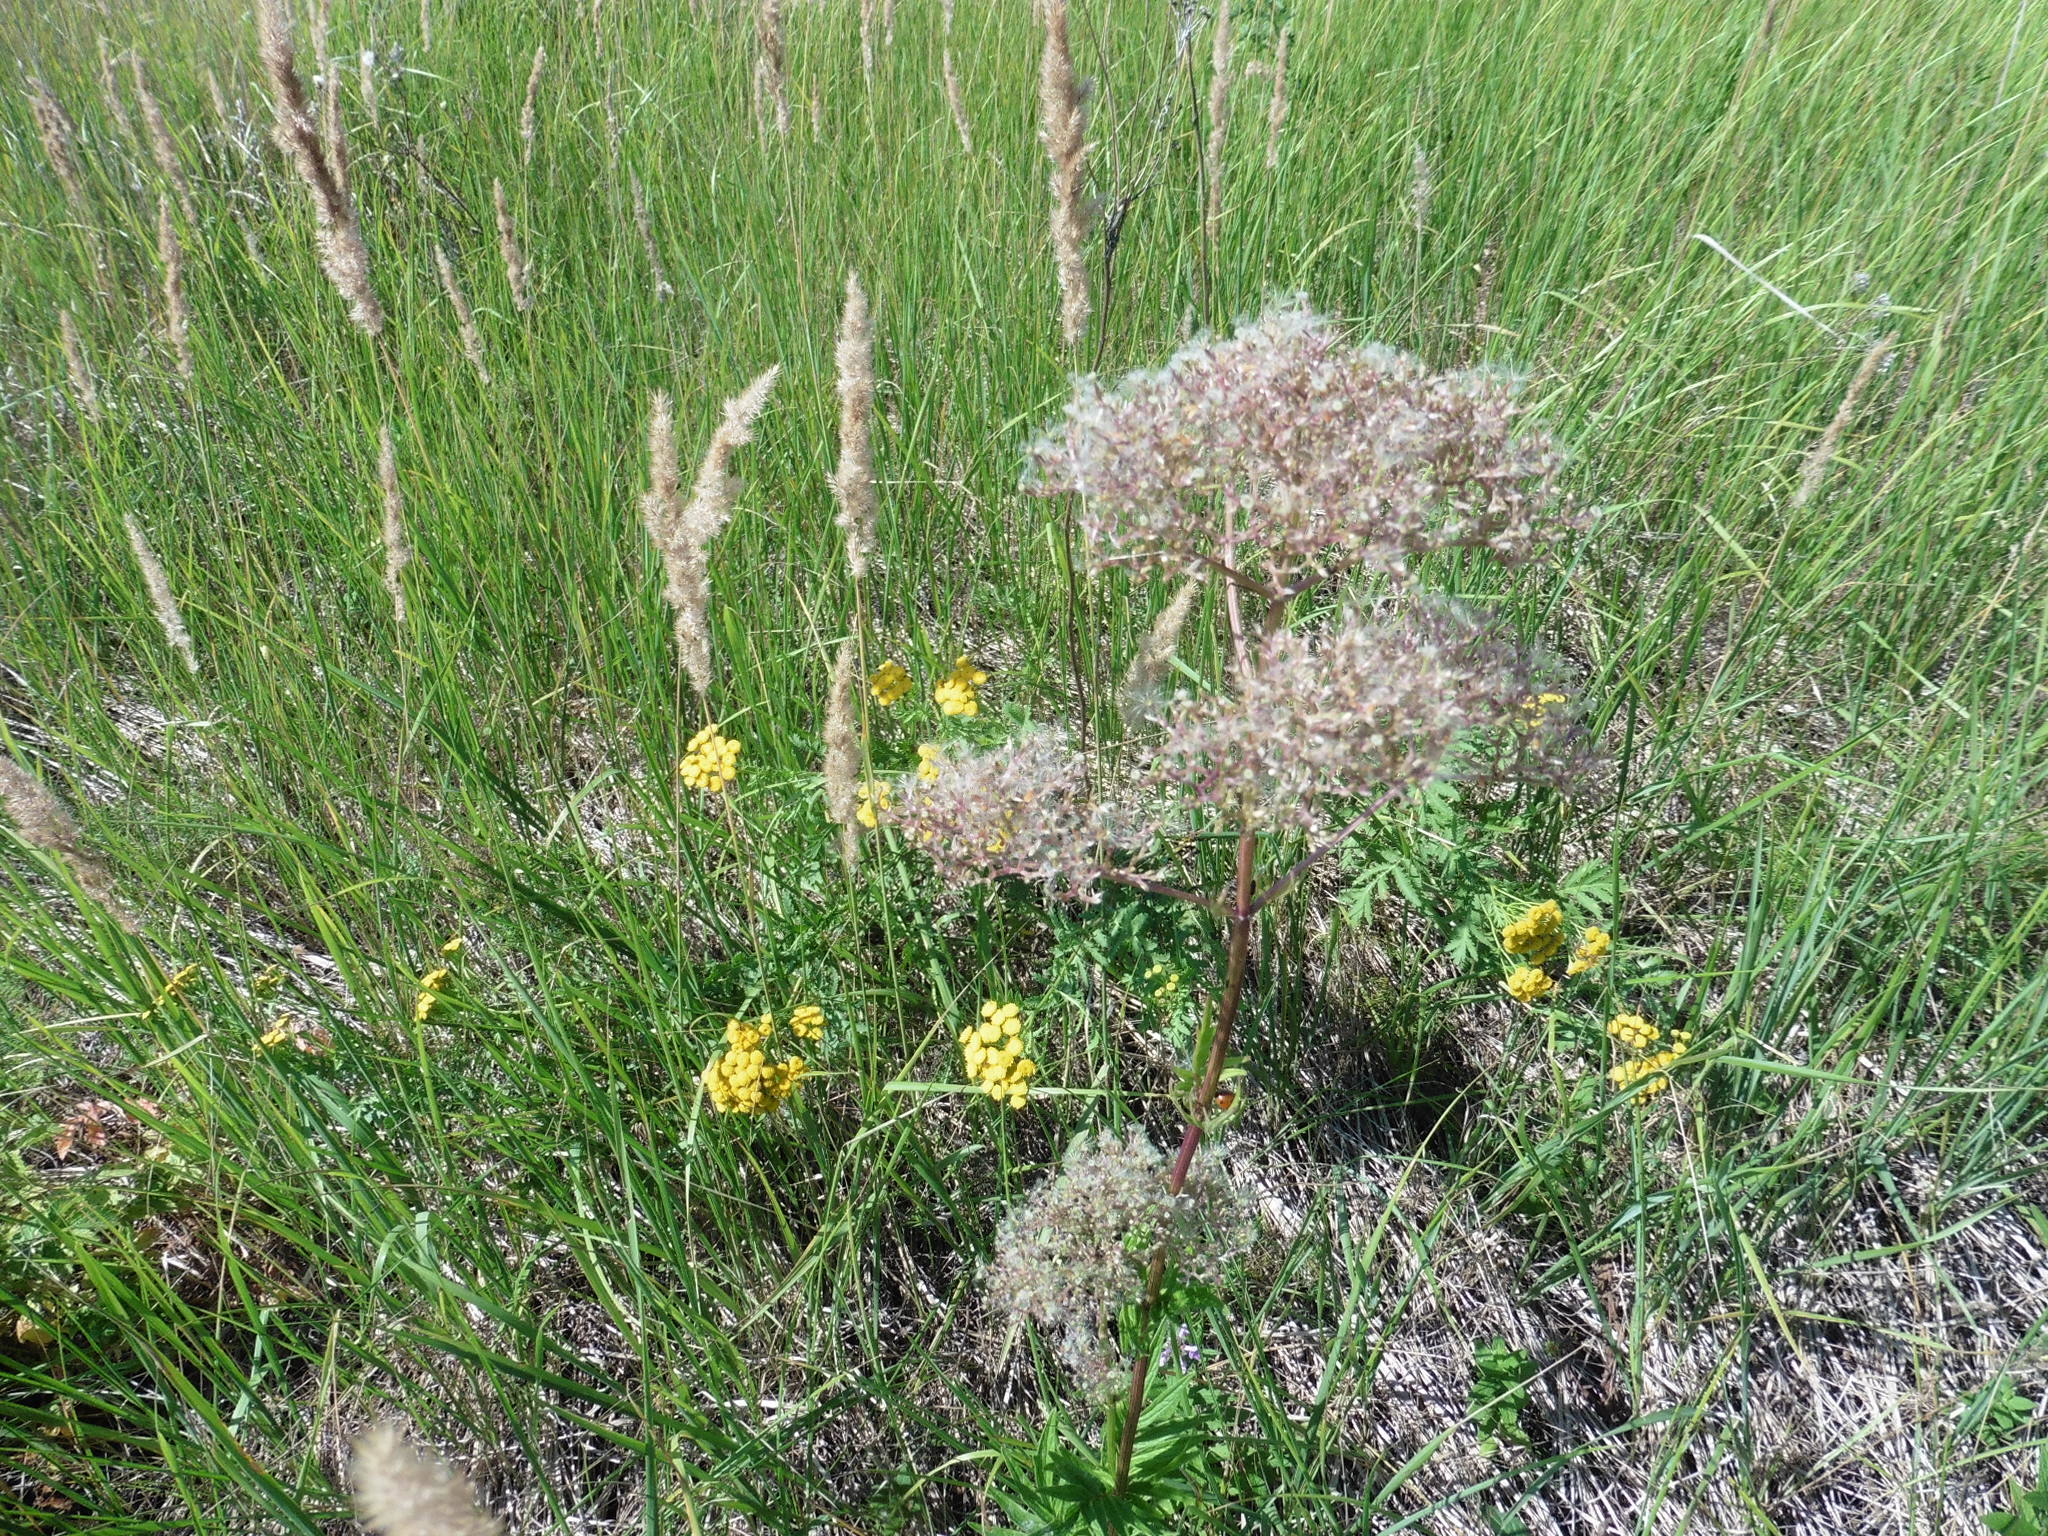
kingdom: Plantae
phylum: Tracheophyta
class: Magnoliopsida
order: Dipsacales
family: Caprifoliaceae
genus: Valeriana
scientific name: Valeriana officinalis
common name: Common valerian
